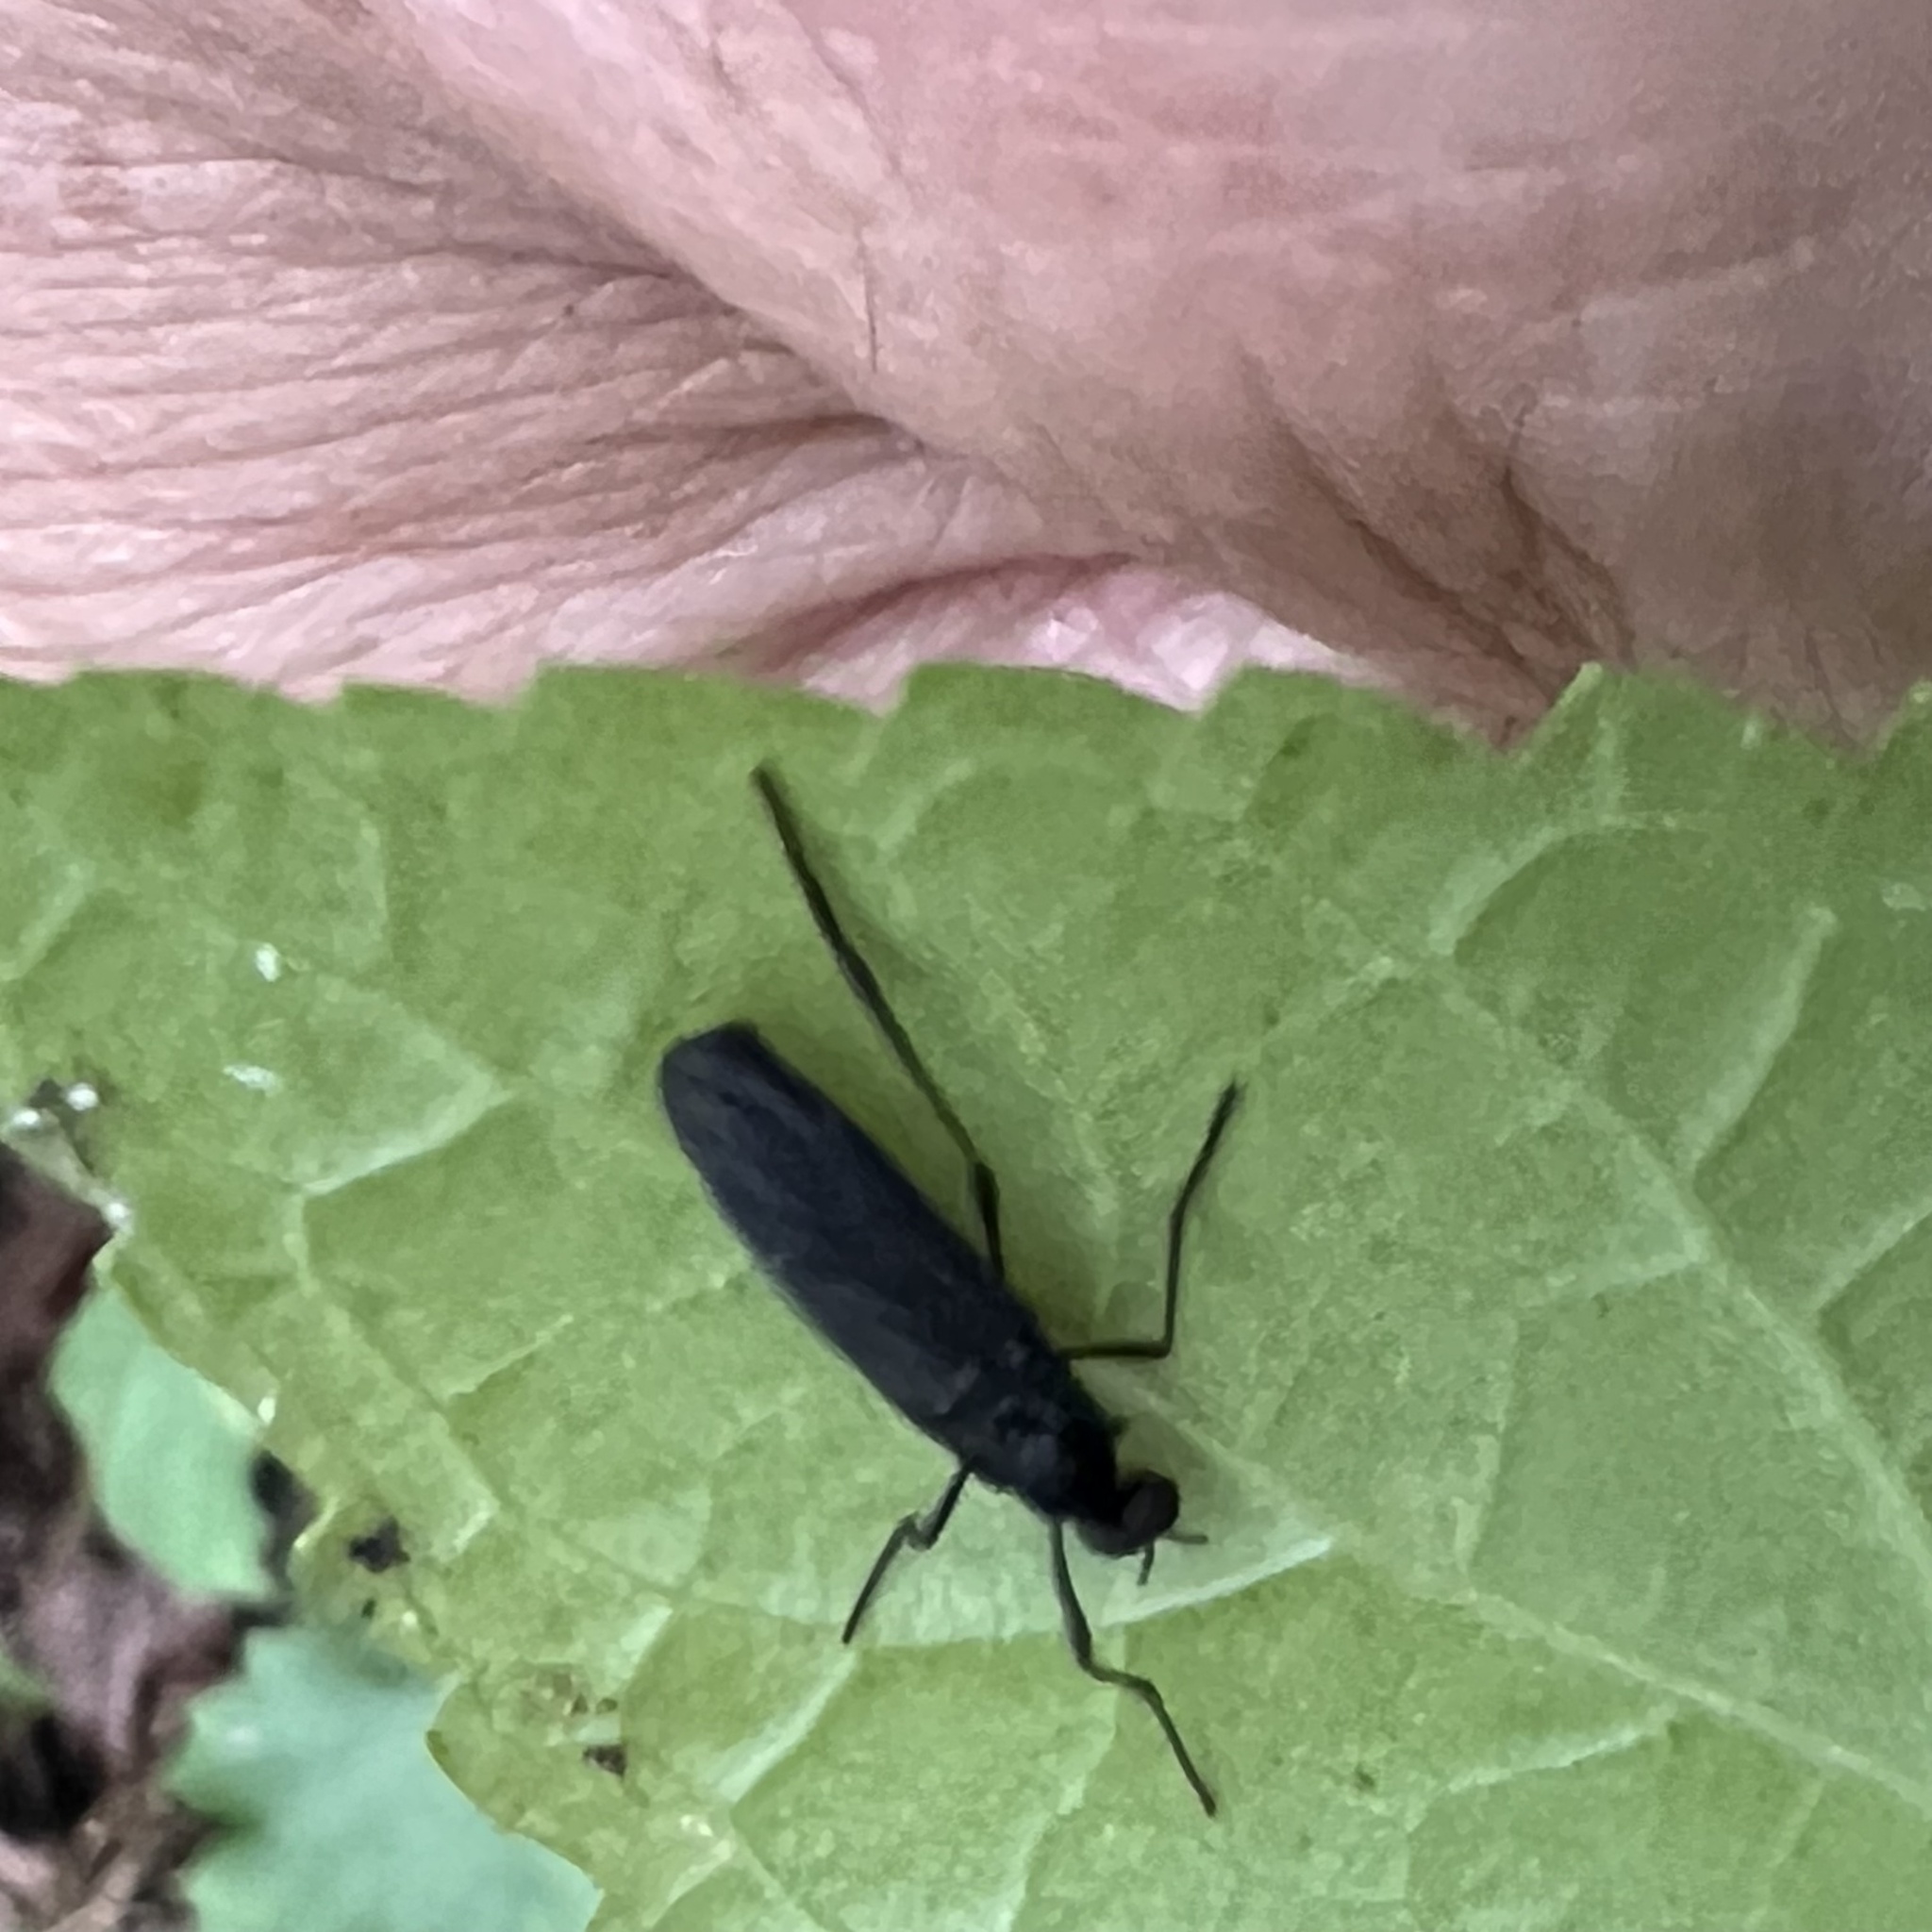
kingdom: Animalia
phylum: Arthropoda
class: Insecta
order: Diptera
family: Bibionidae
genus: Penthetria
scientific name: Penthetria heteroptera
